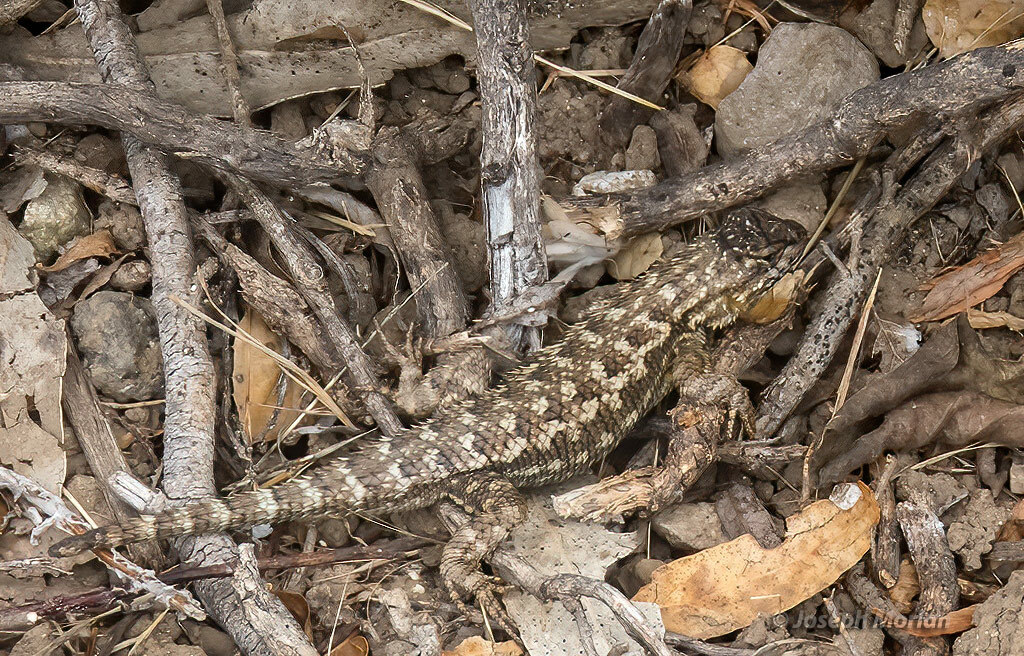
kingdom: Animalia
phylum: Chordata
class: Squamata
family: Phrynosomatidae
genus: Sceloporus
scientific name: Sceloporus occidentalis
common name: Western fence lizard
